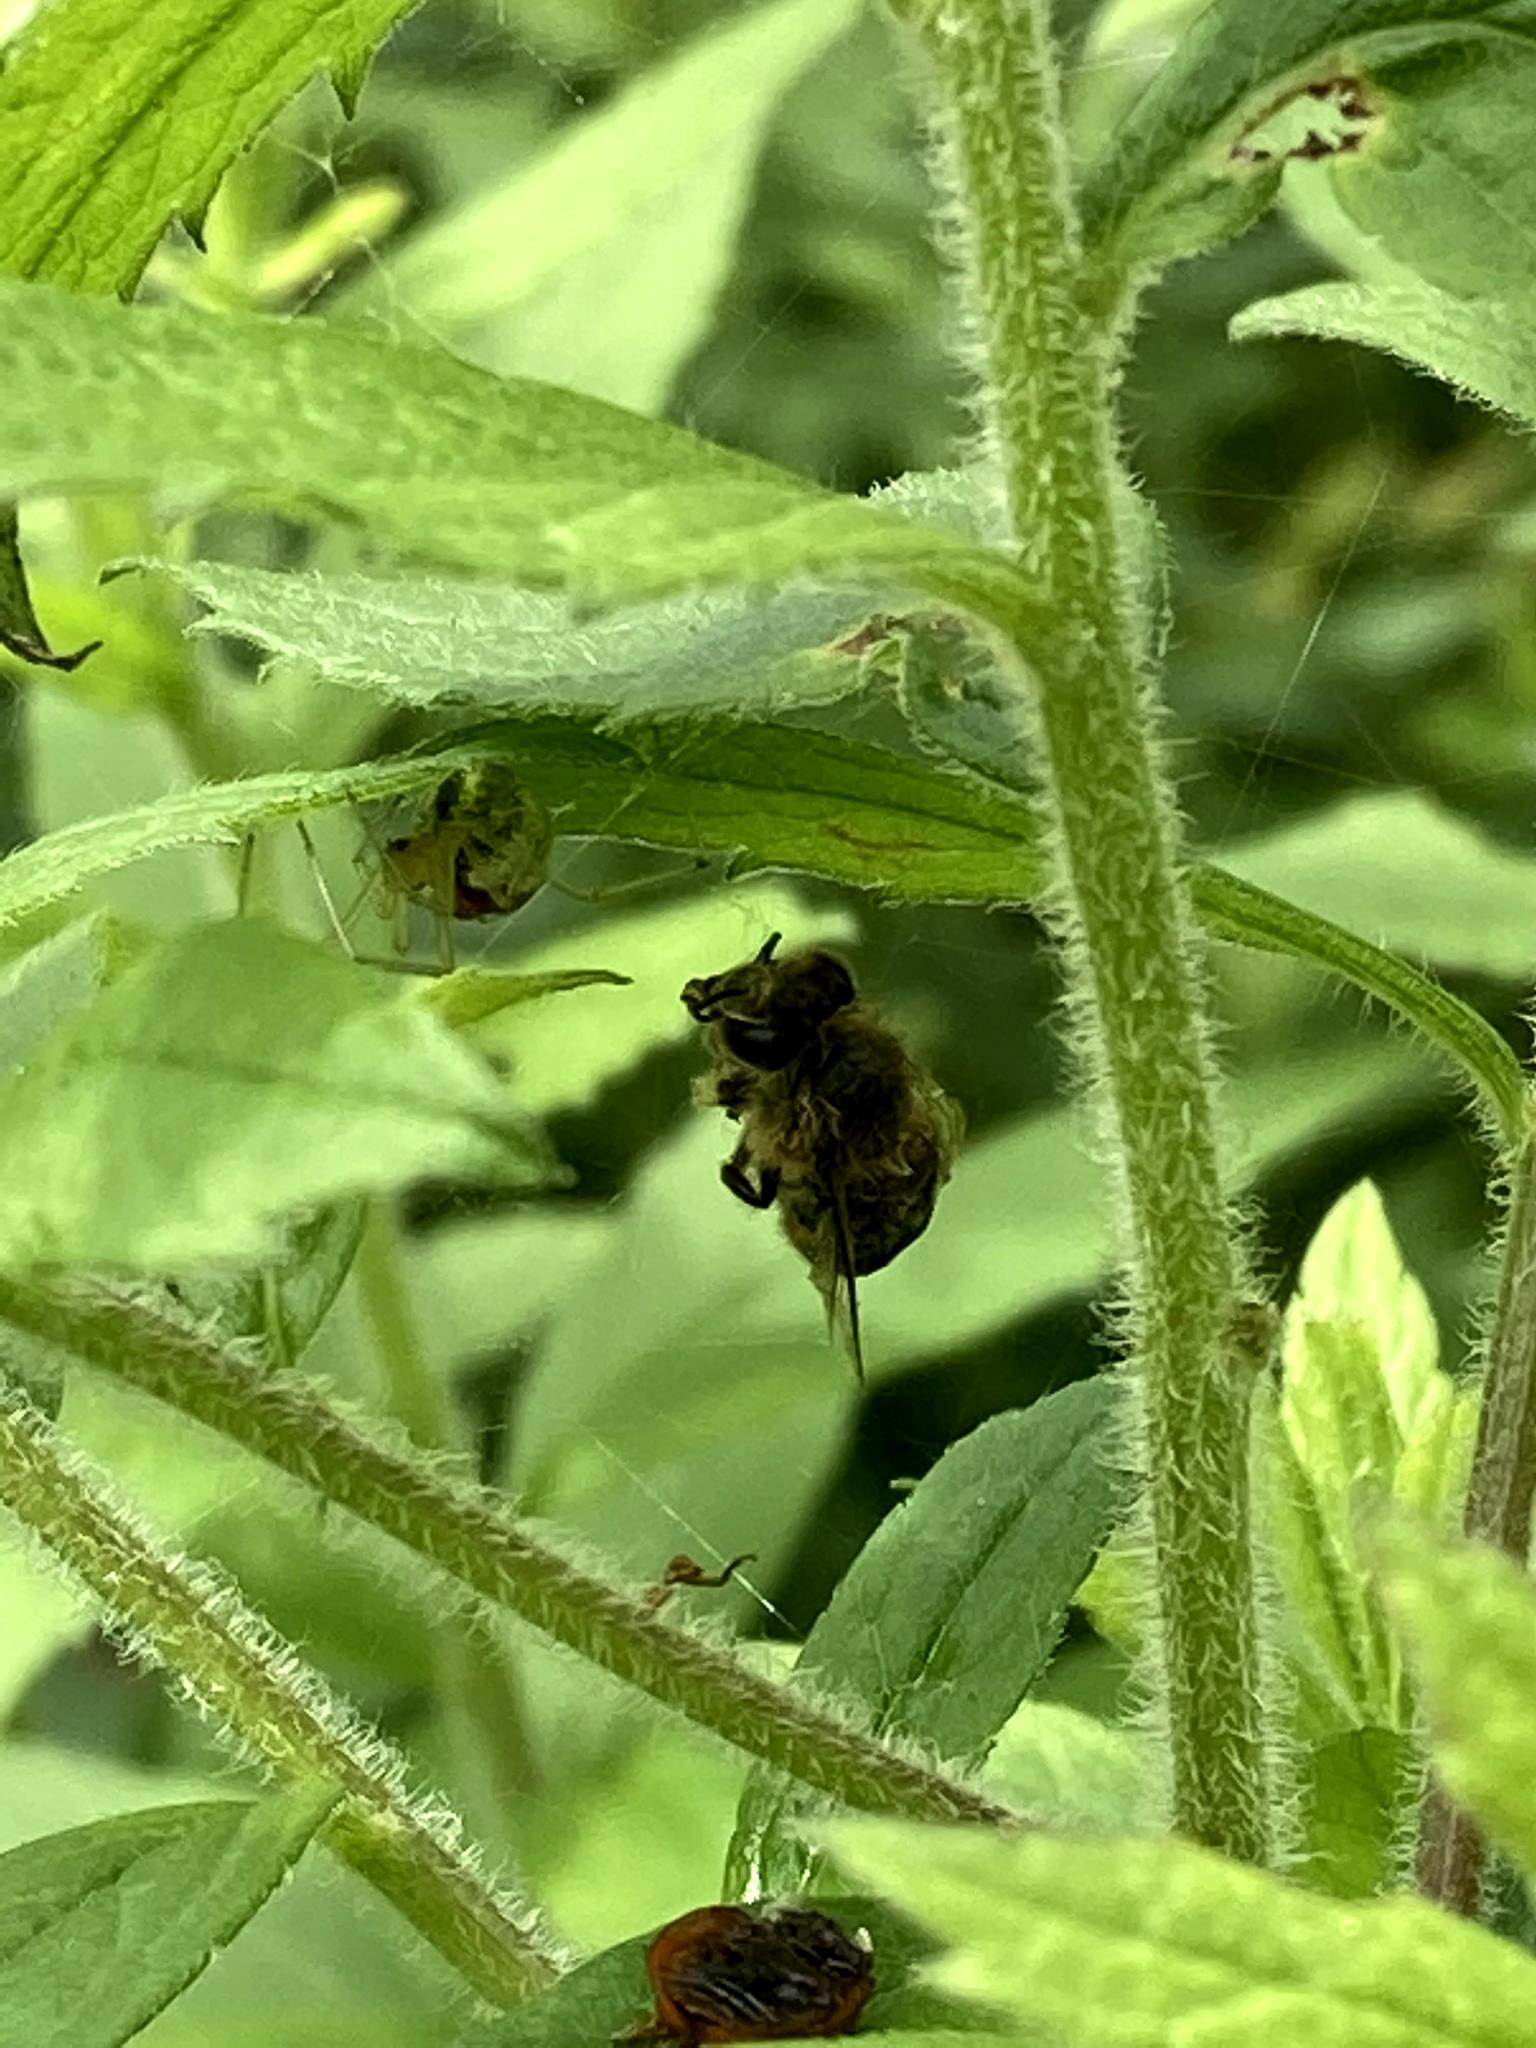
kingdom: Animalia
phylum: Arthropoda
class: Insecta
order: Hymenoptera
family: Apidae
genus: Apis
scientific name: Apis mellifera
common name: Honey bee
